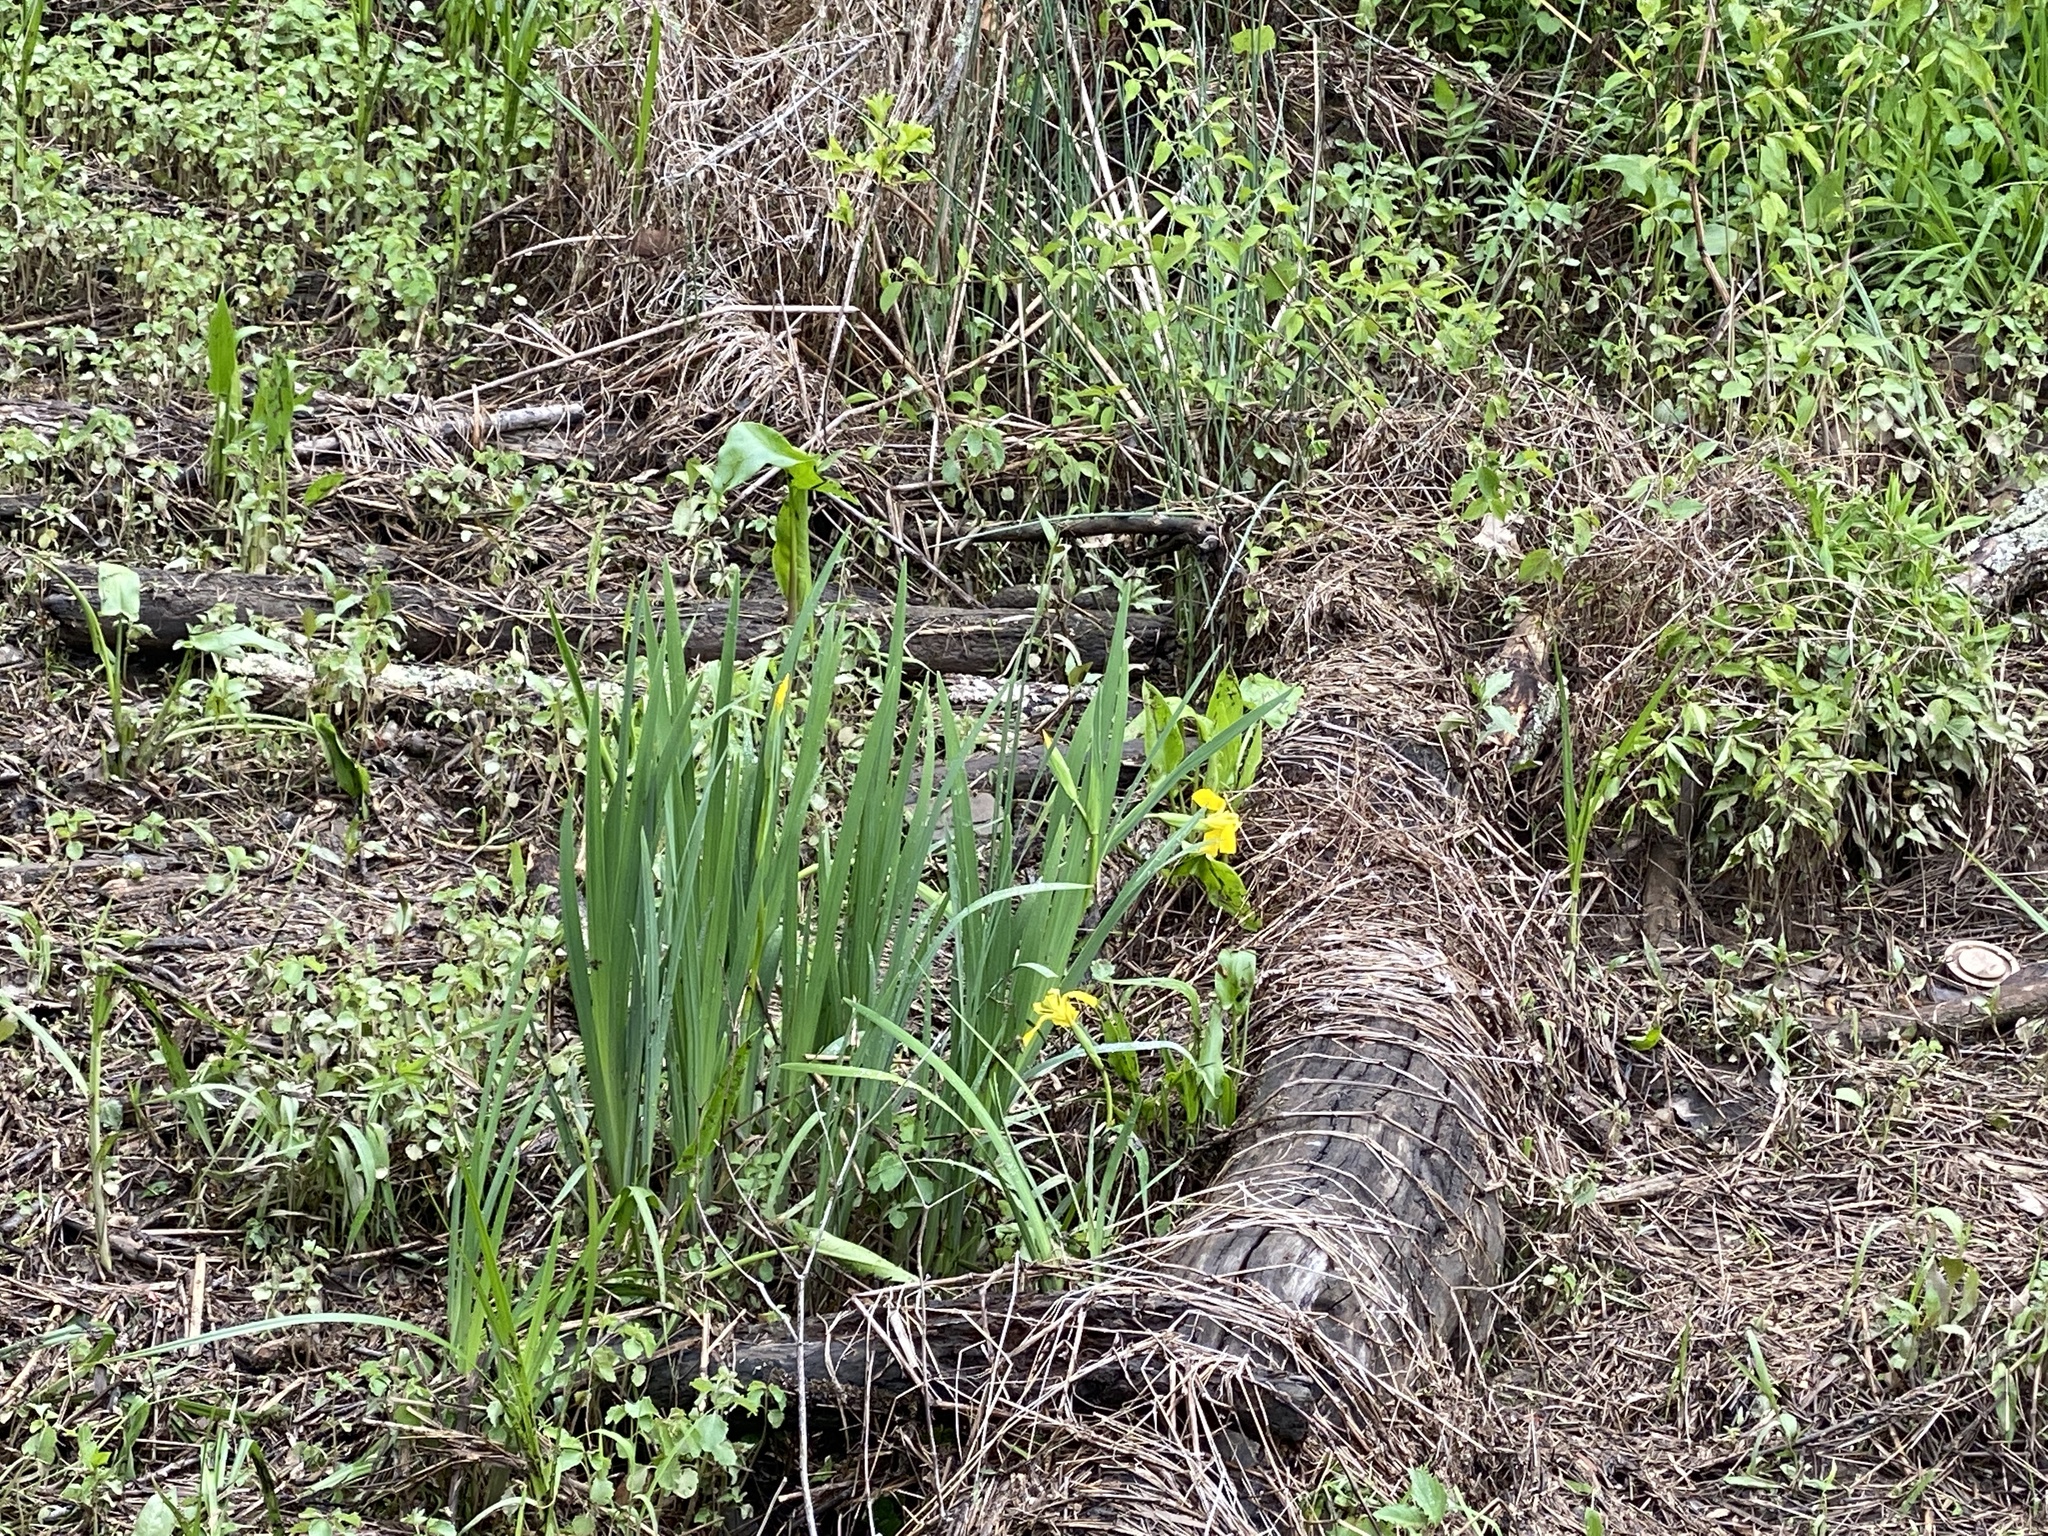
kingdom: Plantae
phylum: Tracheophyta
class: Liliopsida
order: Asparagales
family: Iridaceae
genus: Iris
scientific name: Iris pseudacorus
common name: Yellow flag
